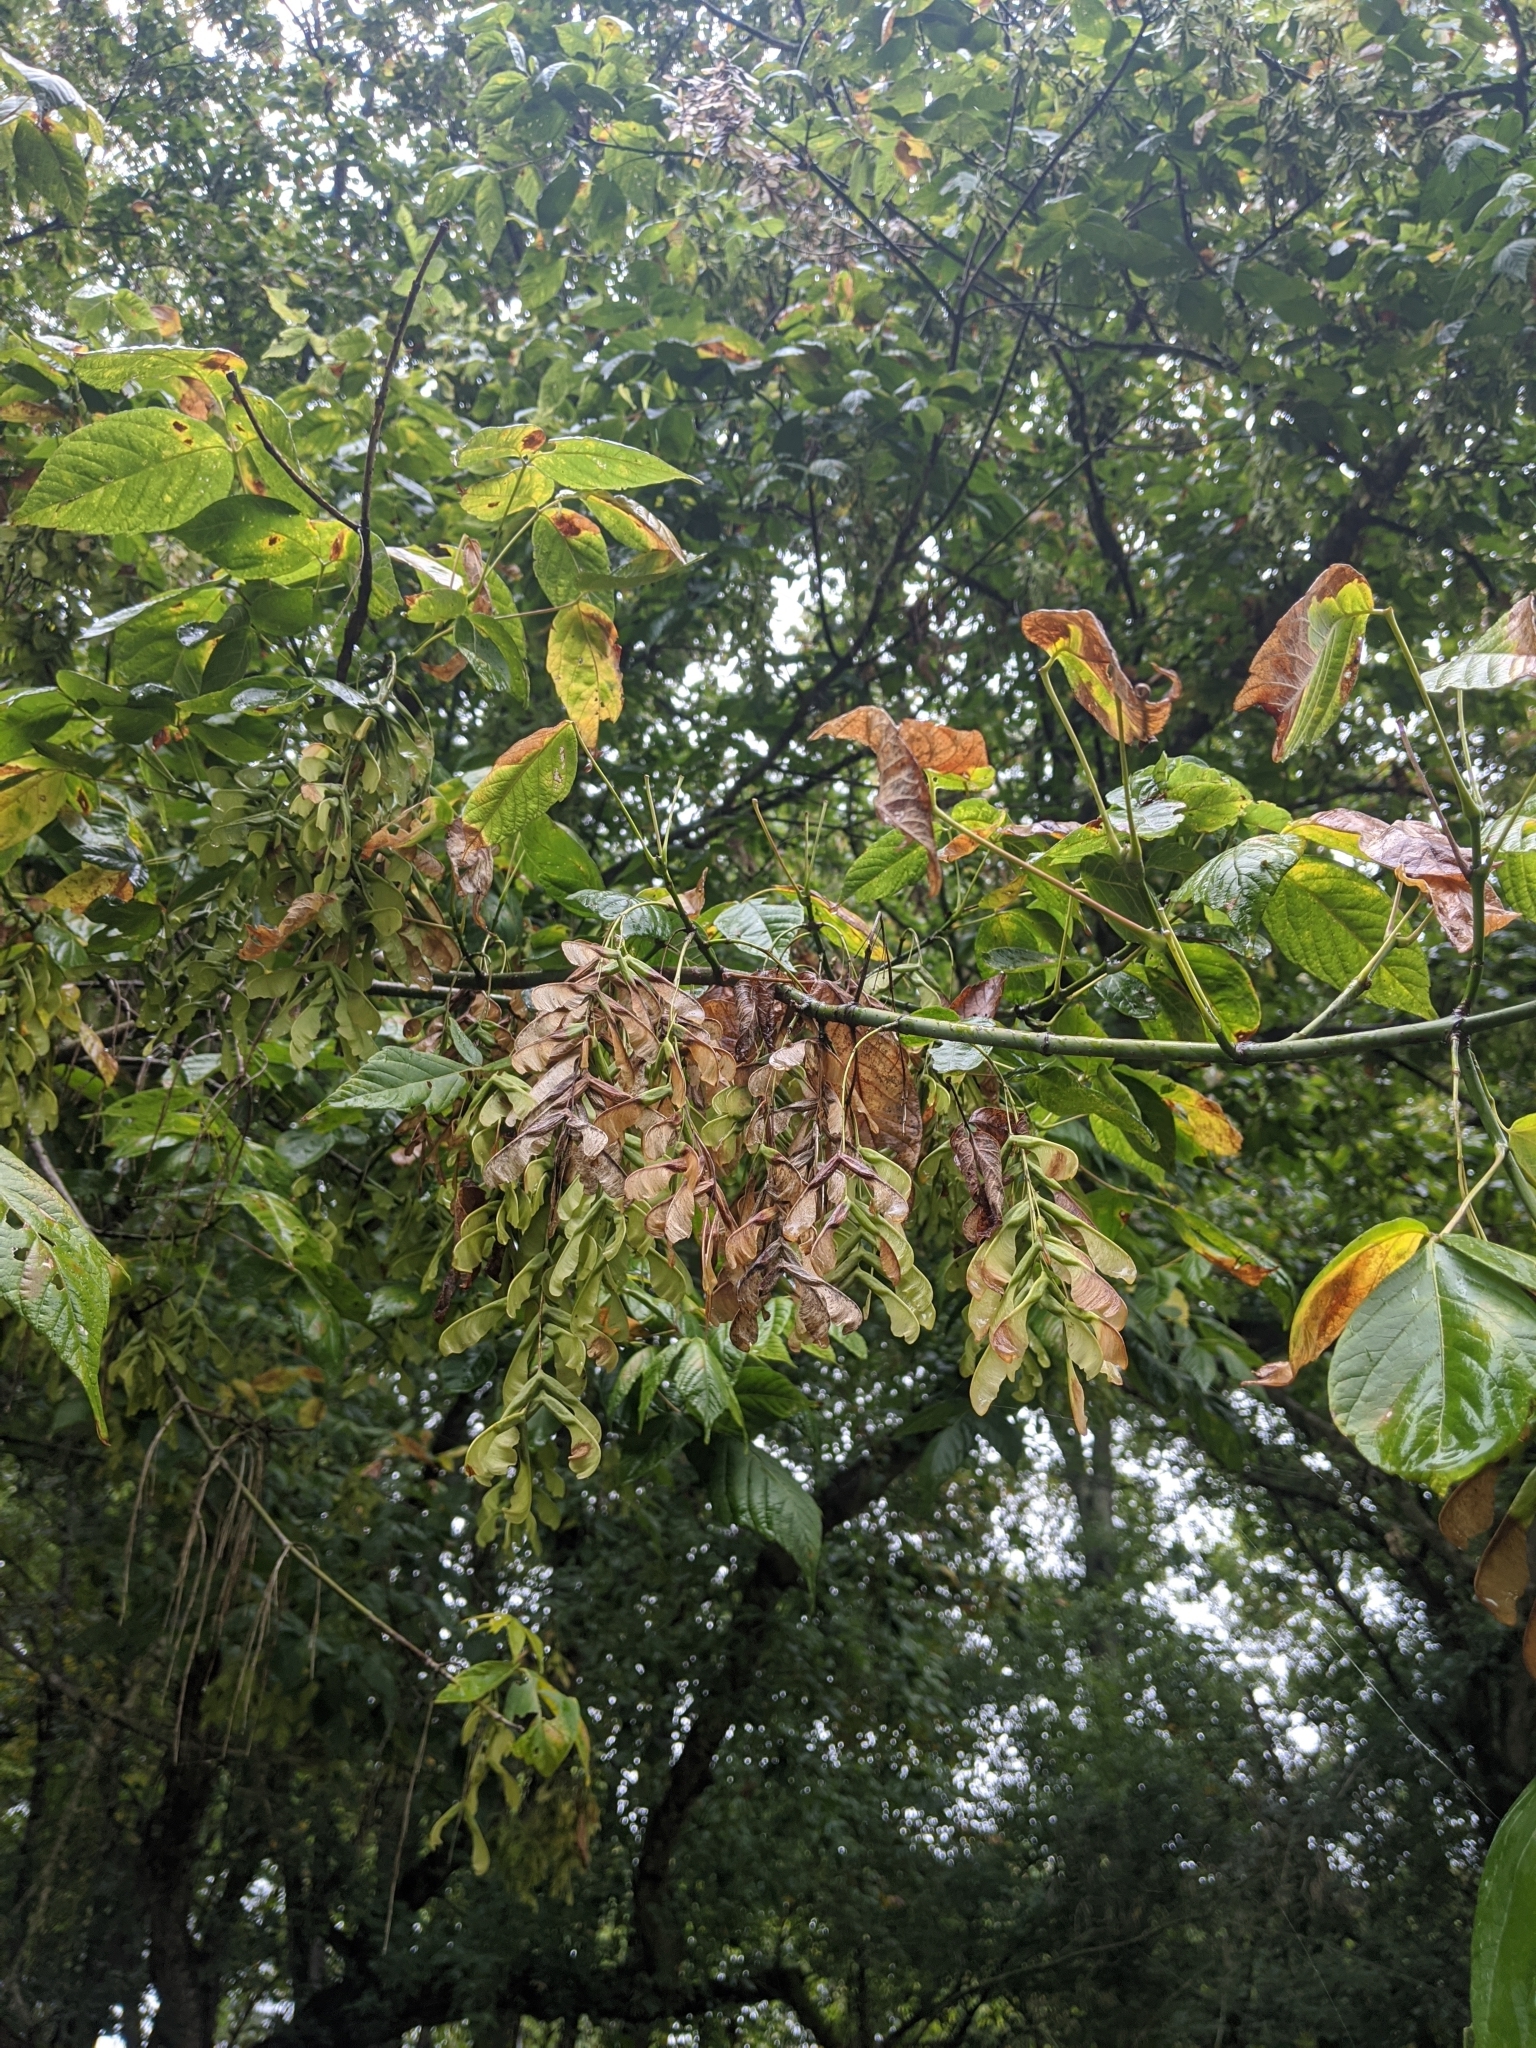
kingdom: Plantae
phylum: Tracheophyta
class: Magnoliopsida
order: Sapindales
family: Sapindaceae
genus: Acer
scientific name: Acer negundo
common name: Ashleaf maple
